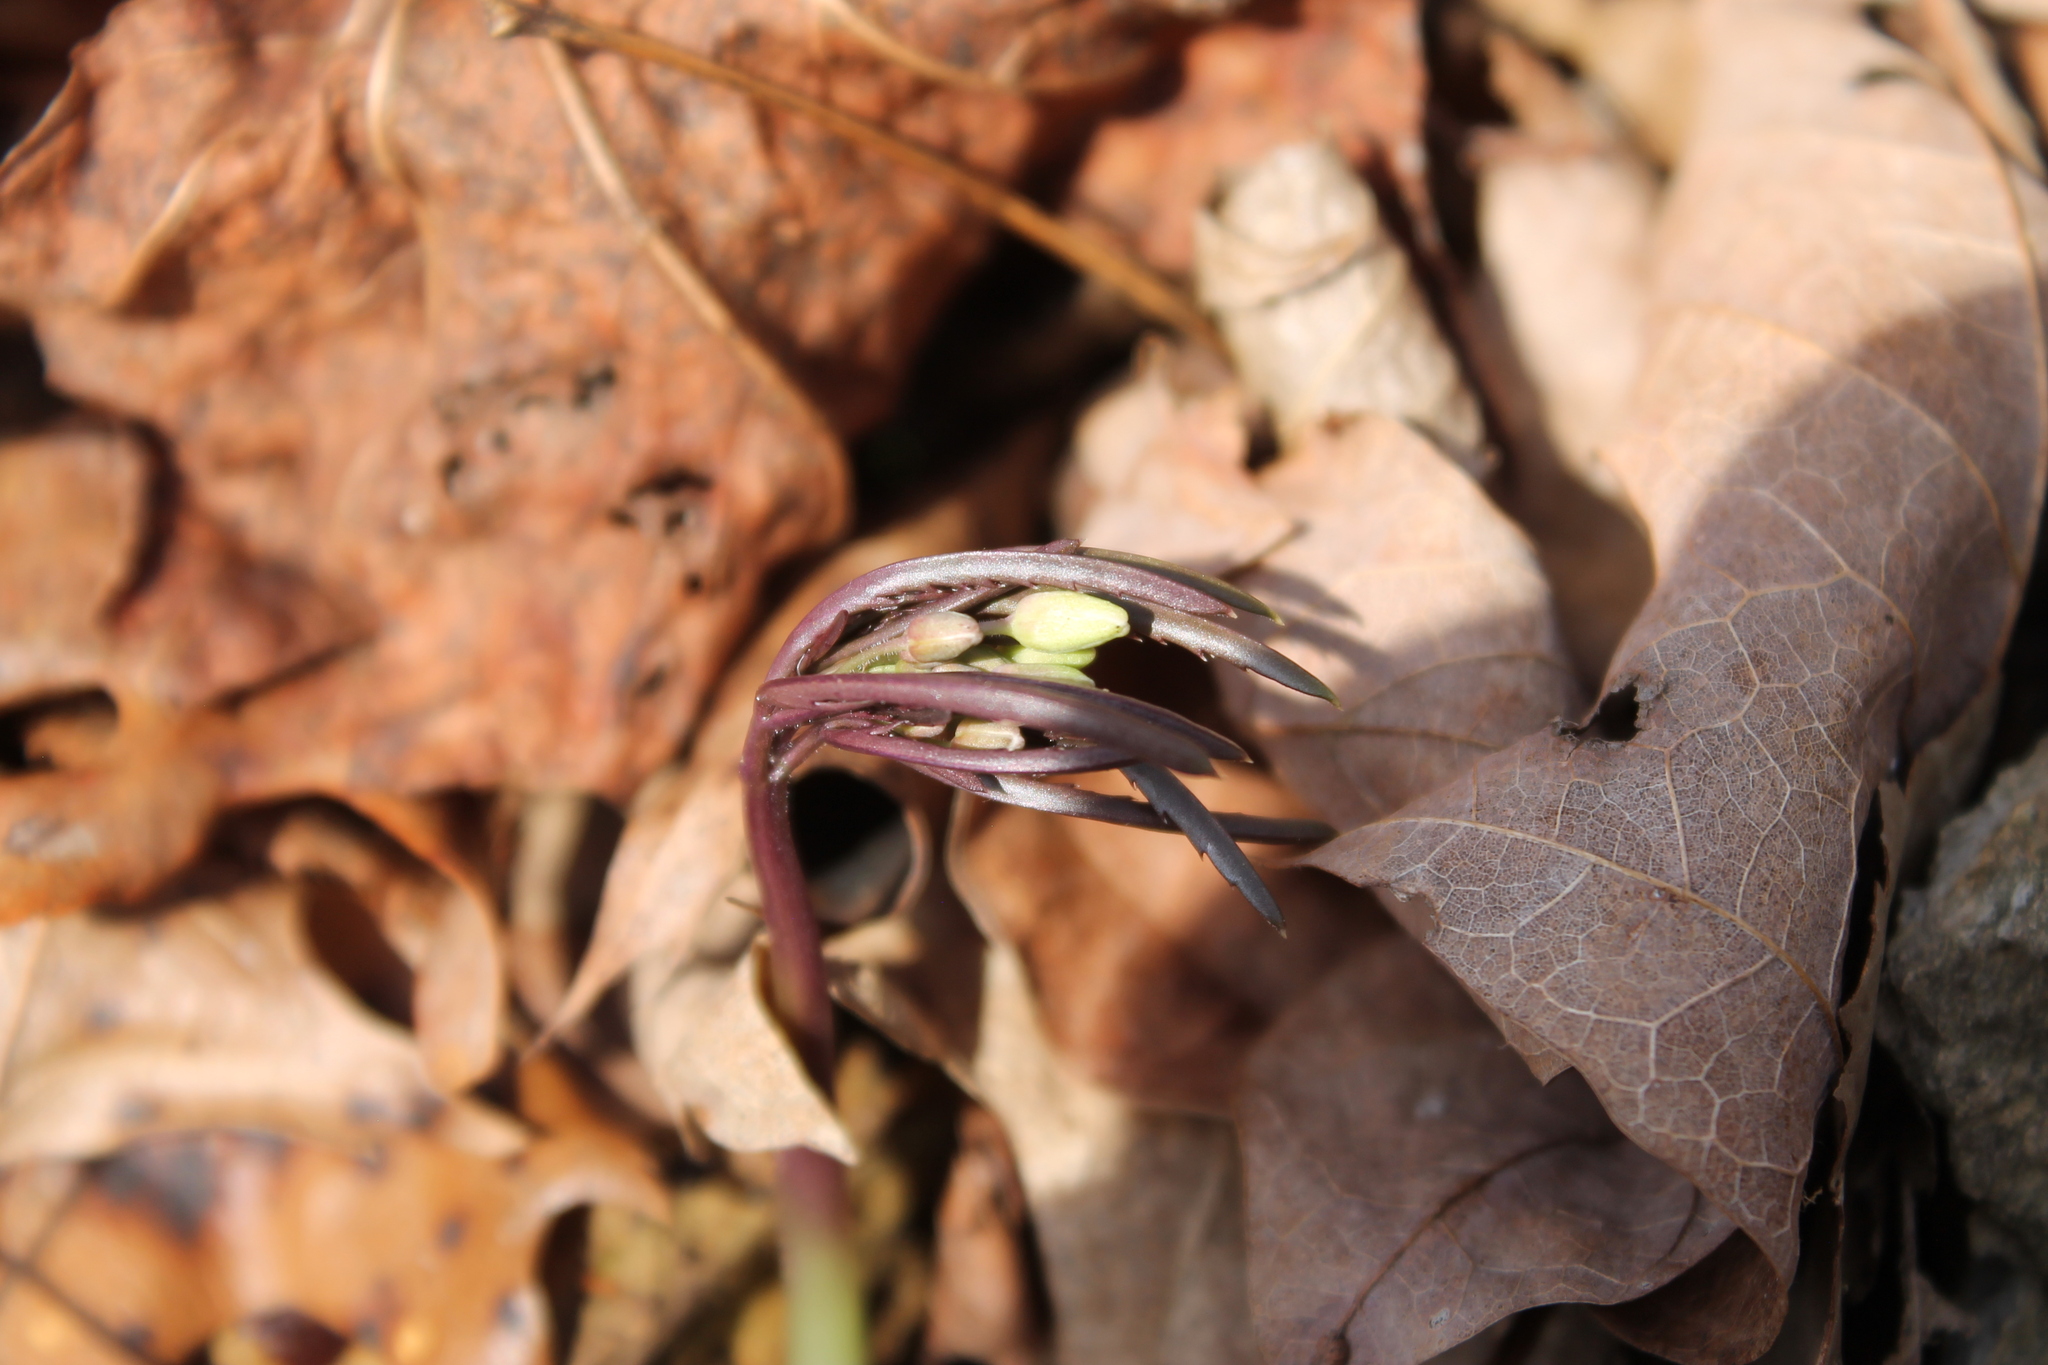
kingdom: Plantae
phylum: Tracheophyta
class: Magnoliopsida
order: Brassicales
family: Brassicaceae
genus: Cardamine
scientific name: Cardamine concatenata
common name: Cut-leaf toothcup
